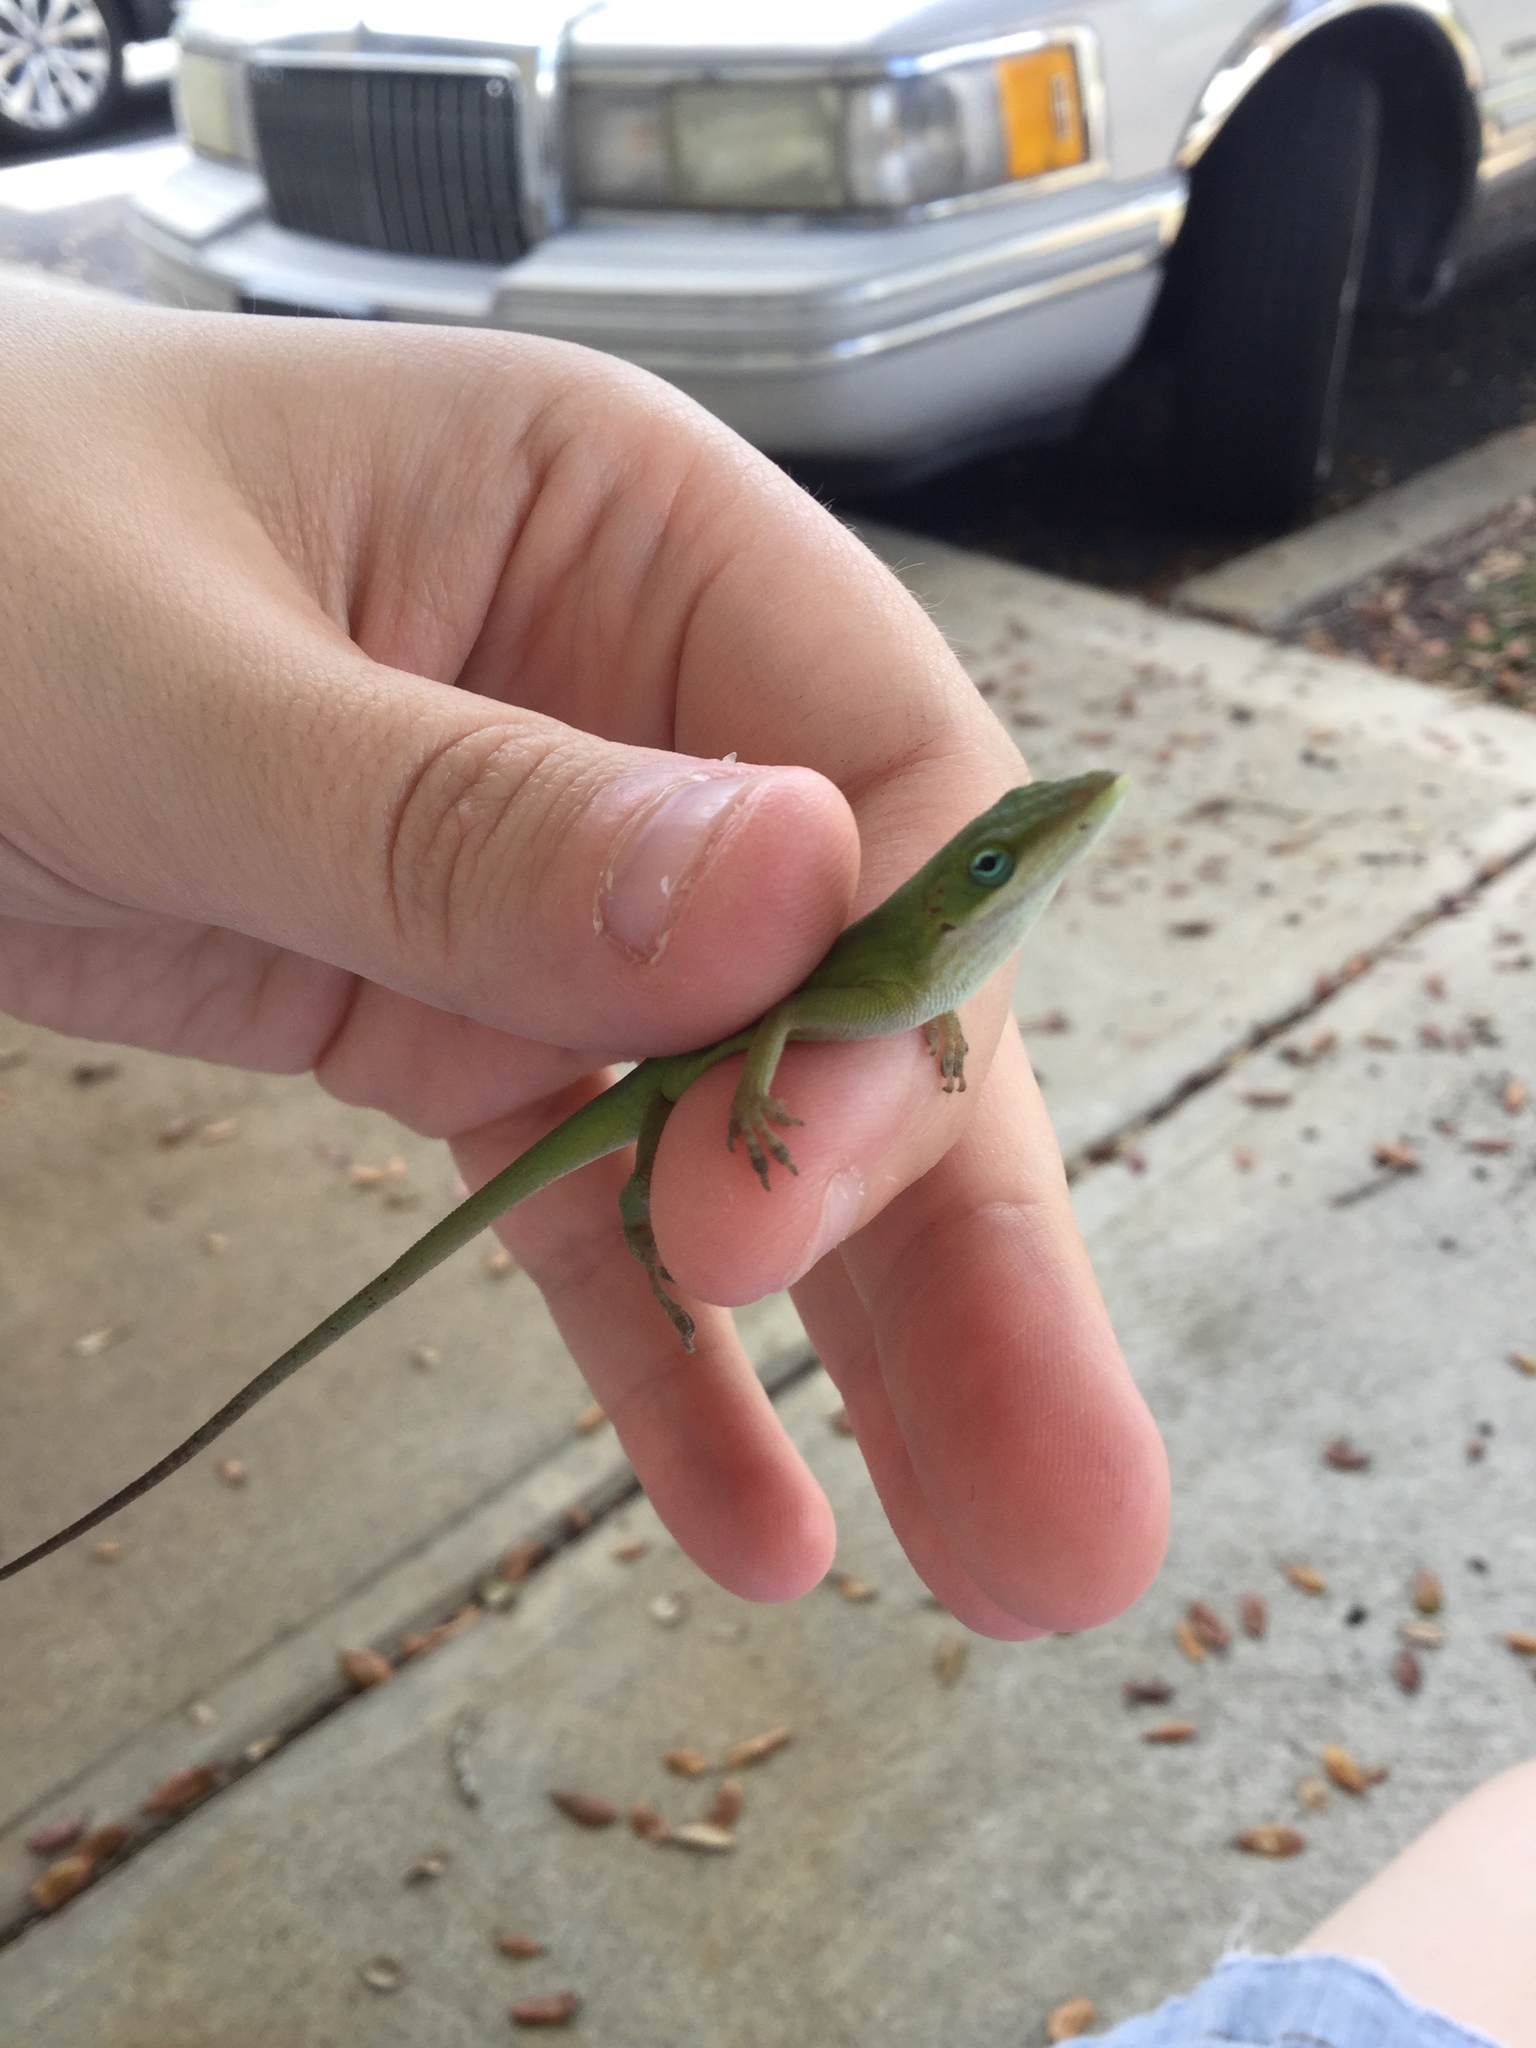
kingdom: Animalia
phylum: Chordata
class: Squamata
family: Dactyloidae
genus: Anolis
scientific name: Anolis carolinensis
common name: Green anole
